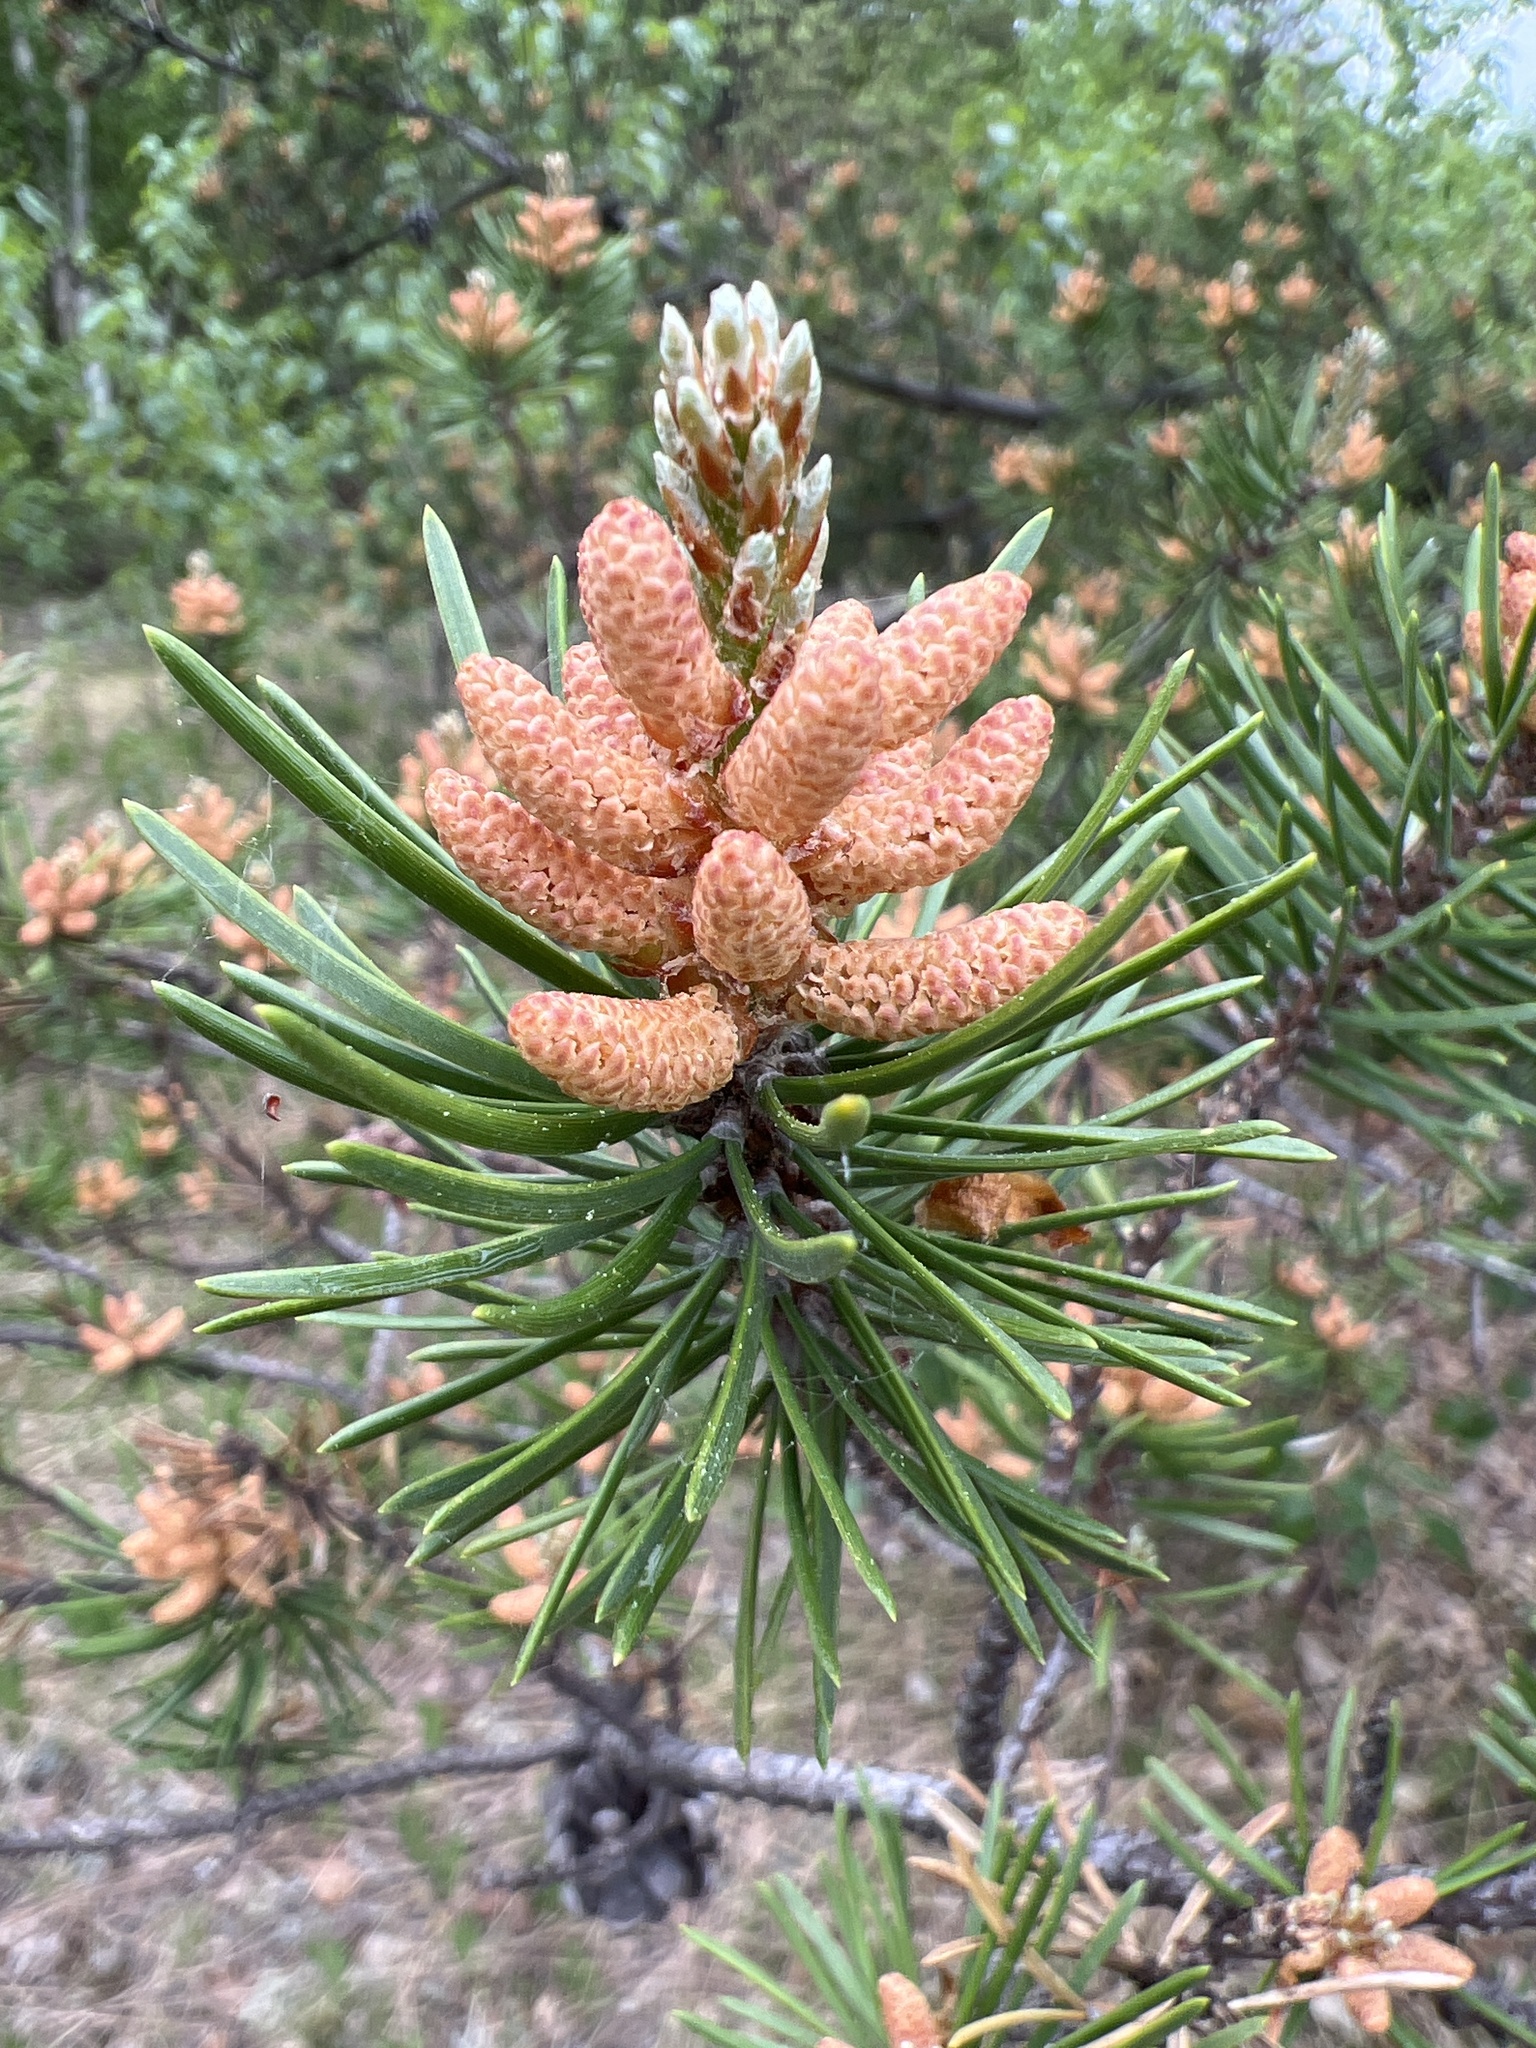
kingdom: Plantae
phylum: Tracheophyta
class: Pinopsida
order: Pinales
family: Pinaceae
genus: Pinus
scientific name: Pinus banksiana
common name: Jack pine
